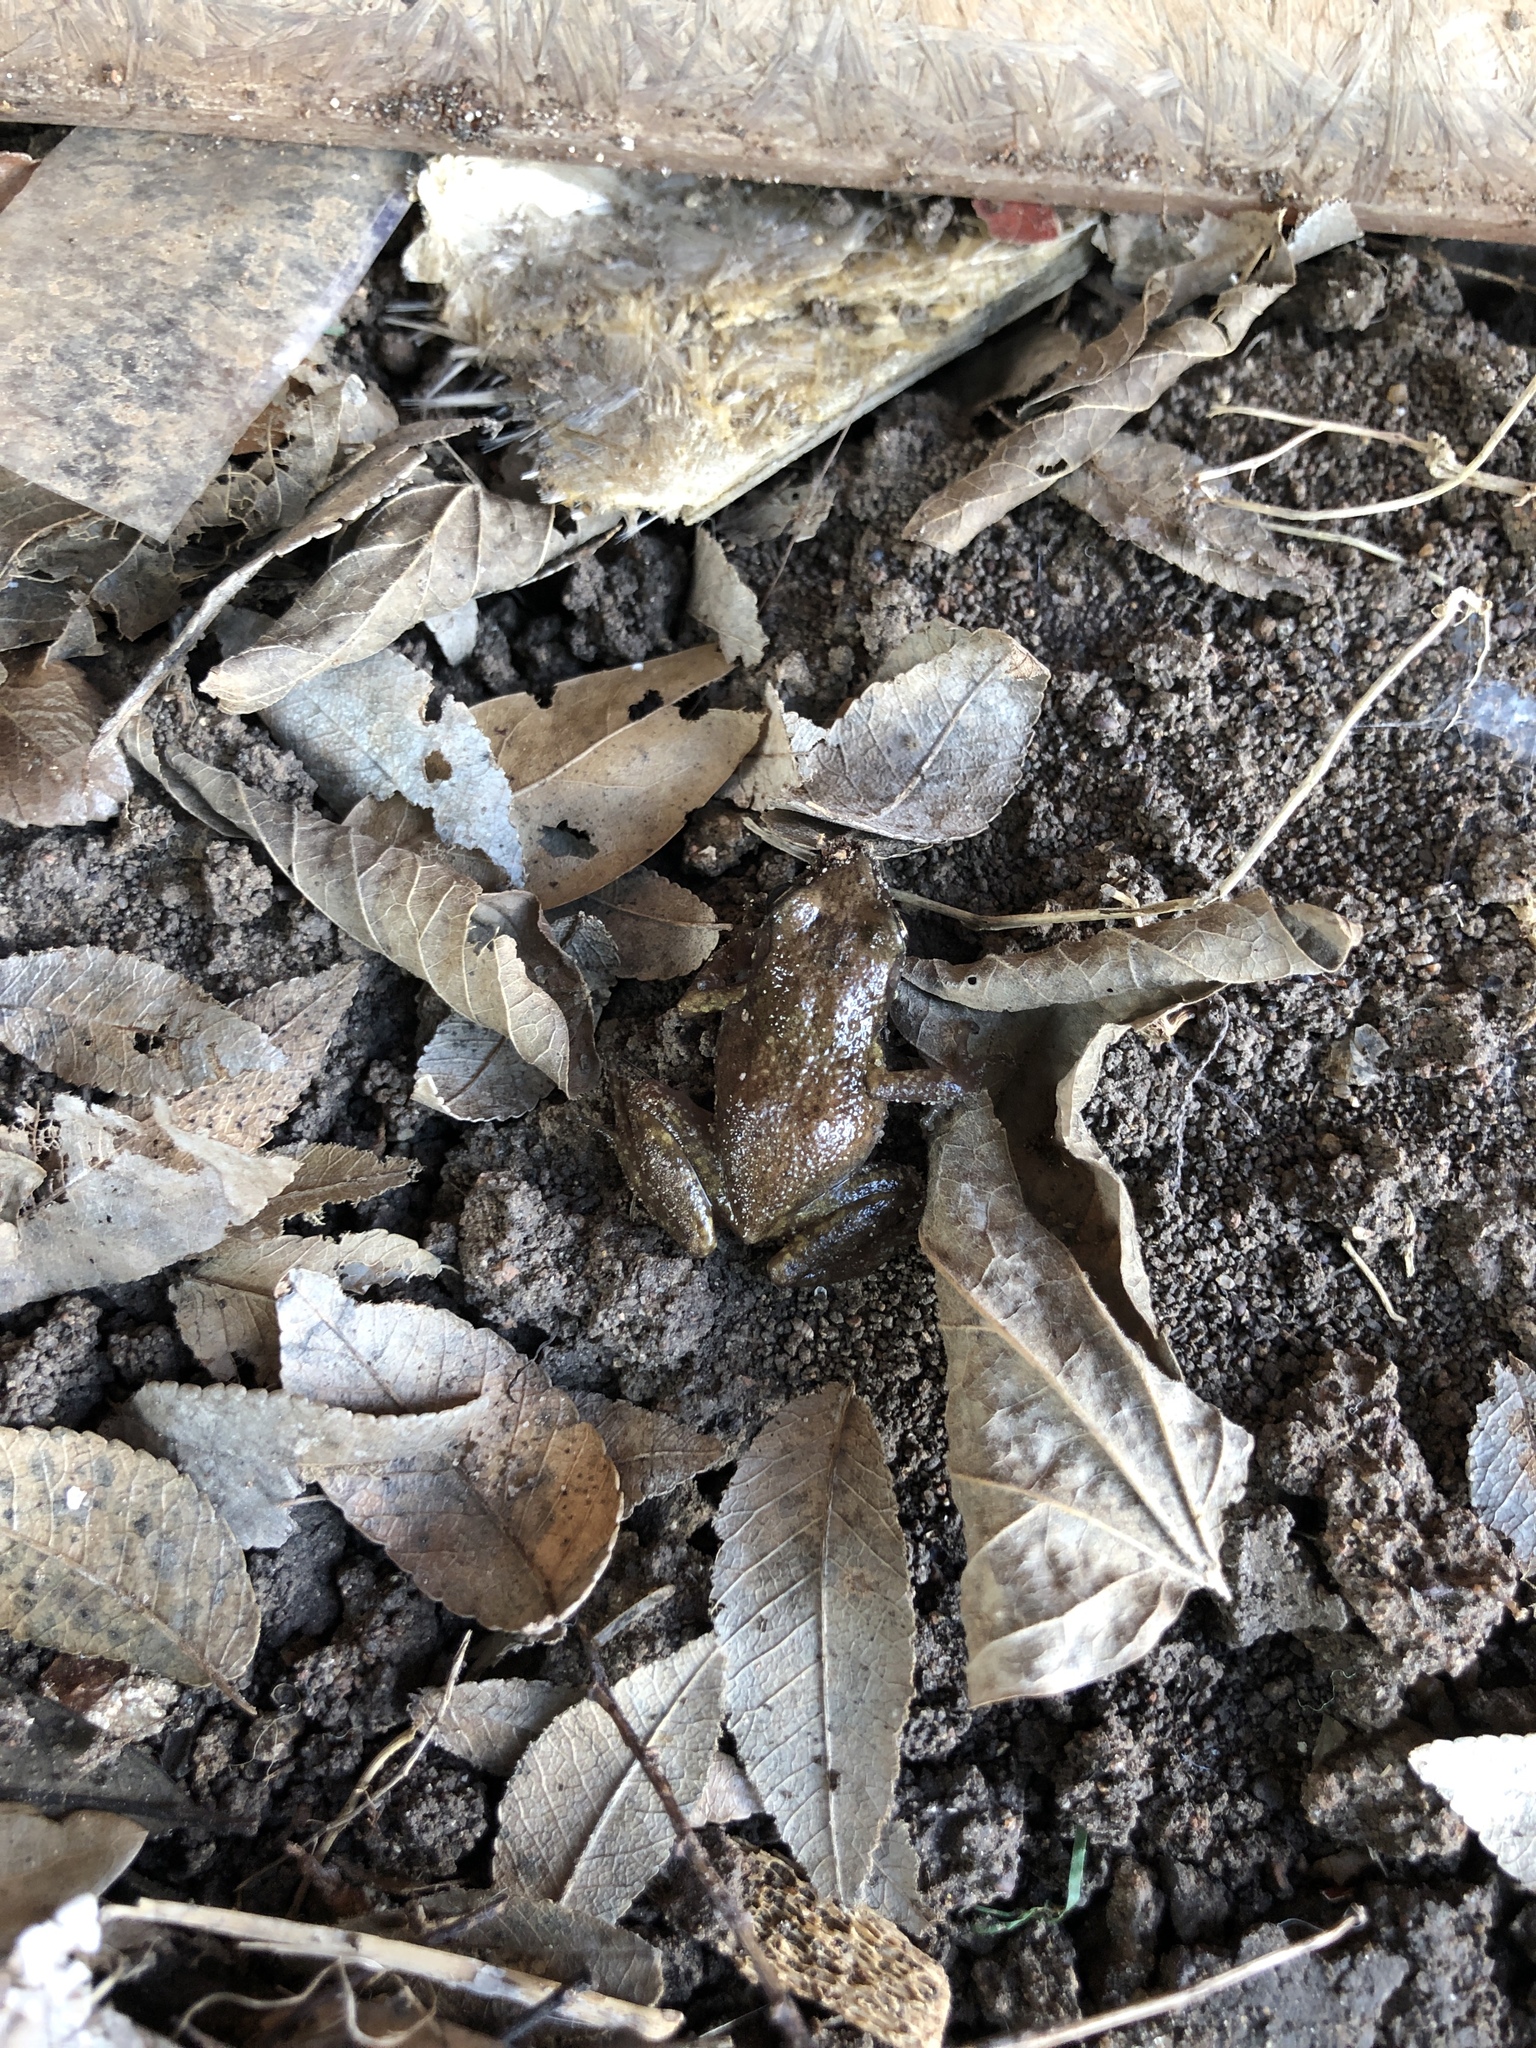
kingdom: Animalia
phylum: Chordata
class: Amphibia
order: Anura
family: Eleutherodactylidae
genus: Eleutherodactylus
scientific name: Eleutherodactylus campi
